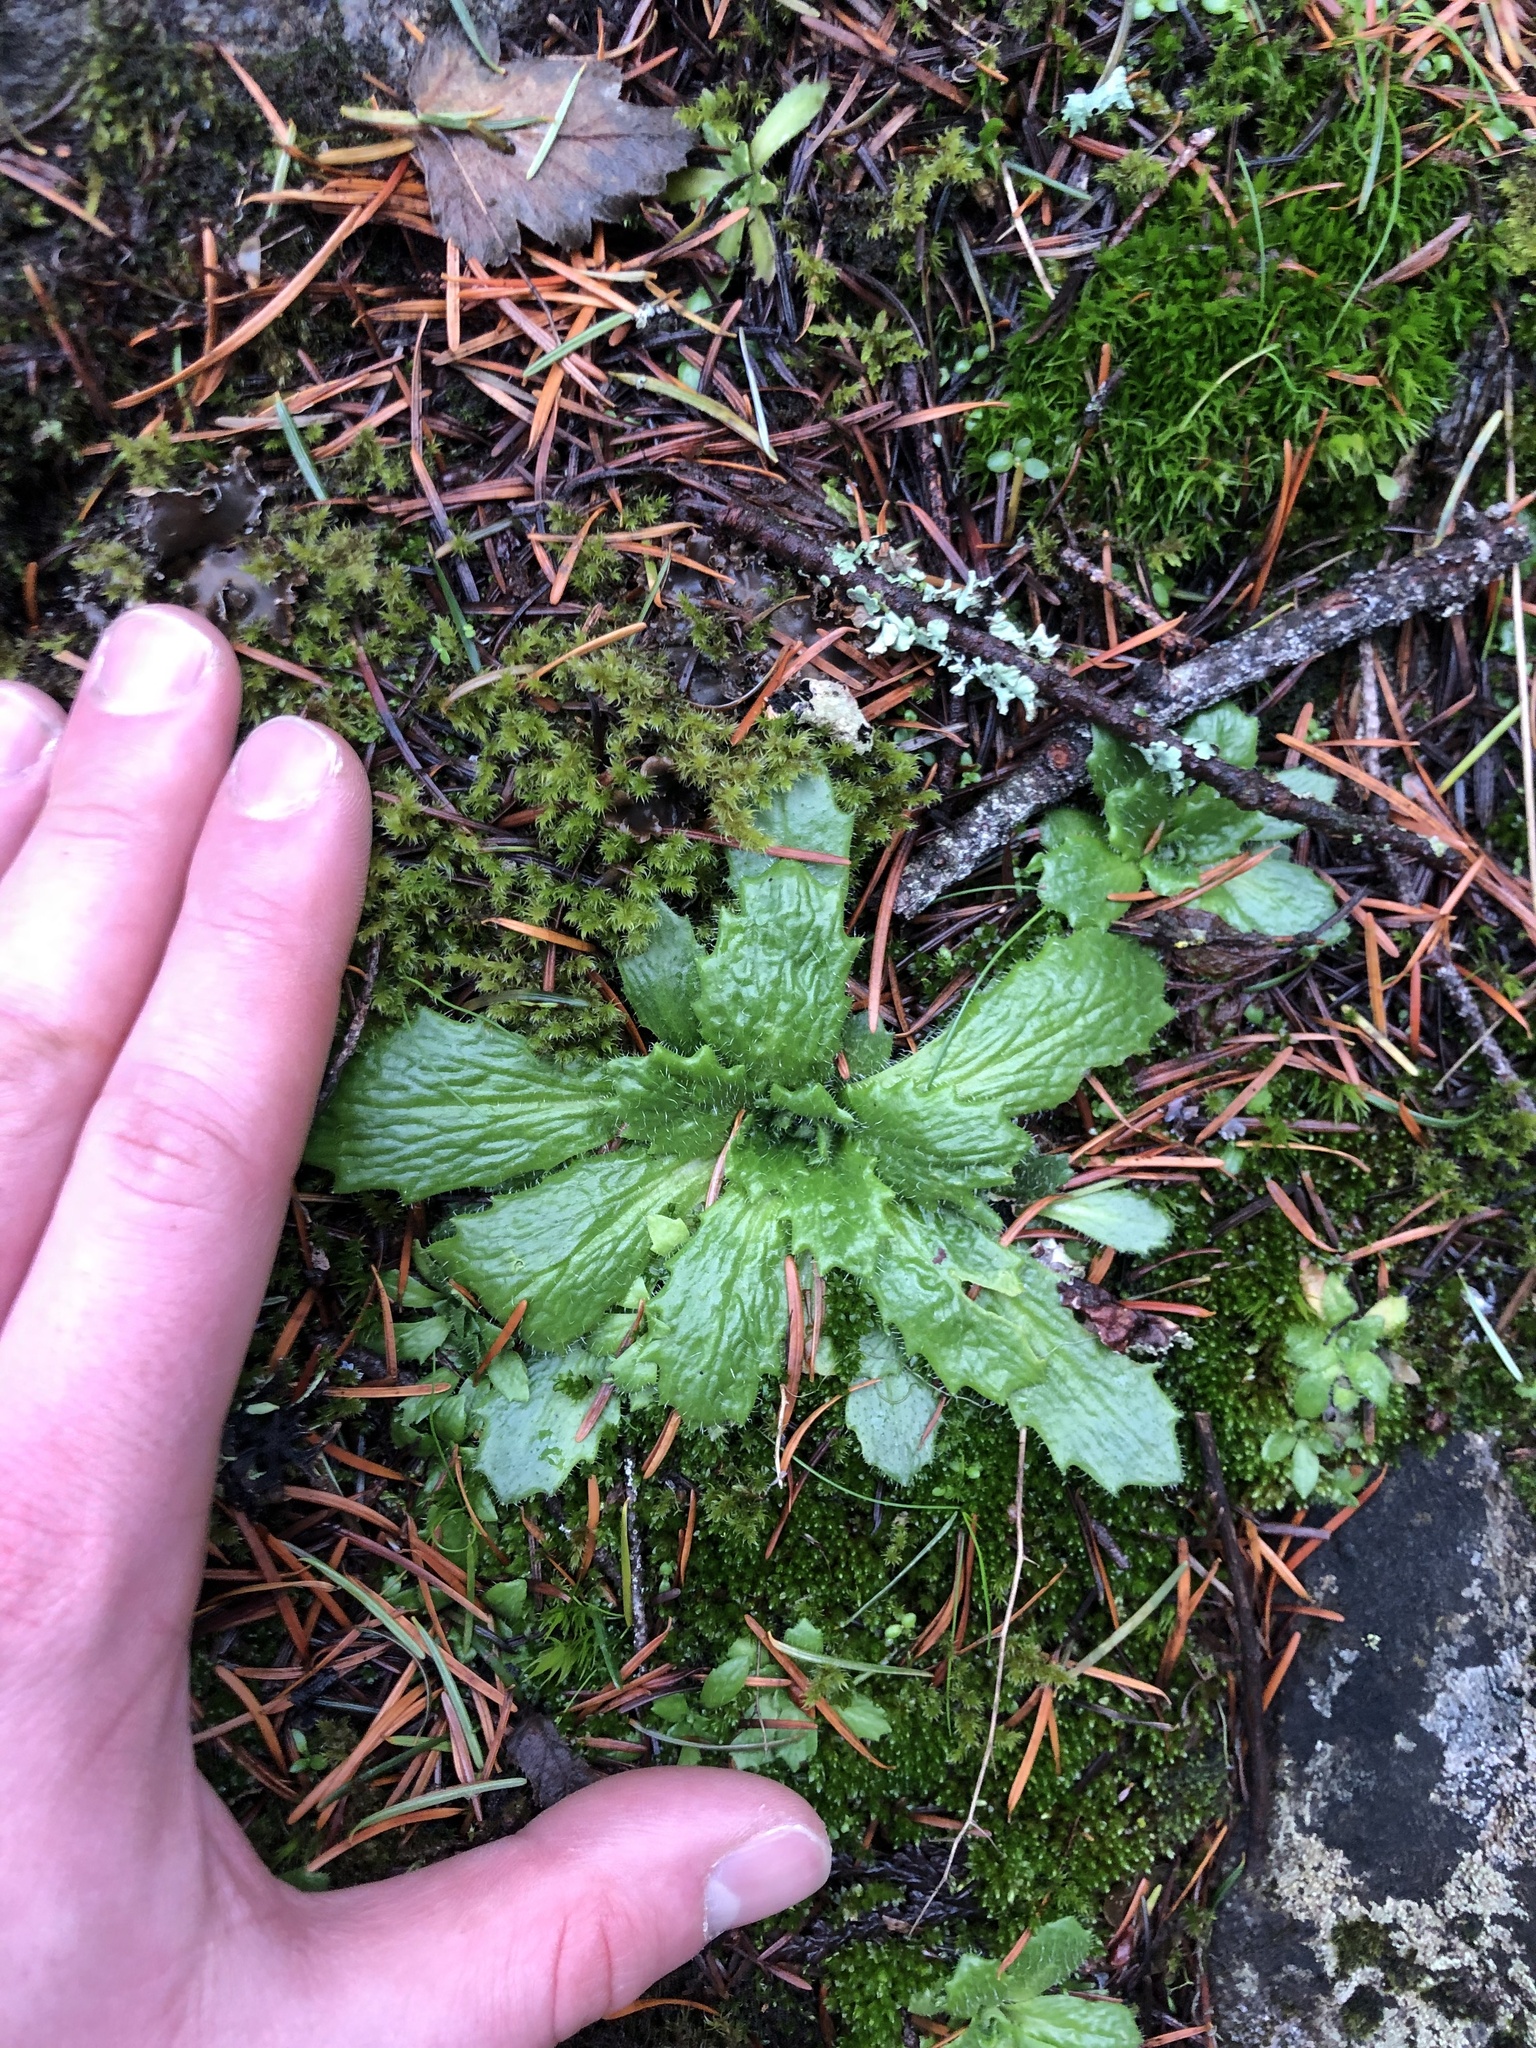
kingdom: Plantae
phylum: Tracheophyta
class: Magnoliopsida
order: Saxifragales
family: Saxifragaceae
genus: Micranthes
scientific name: Micranthes ferruginea
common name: Rusty saxifrage
